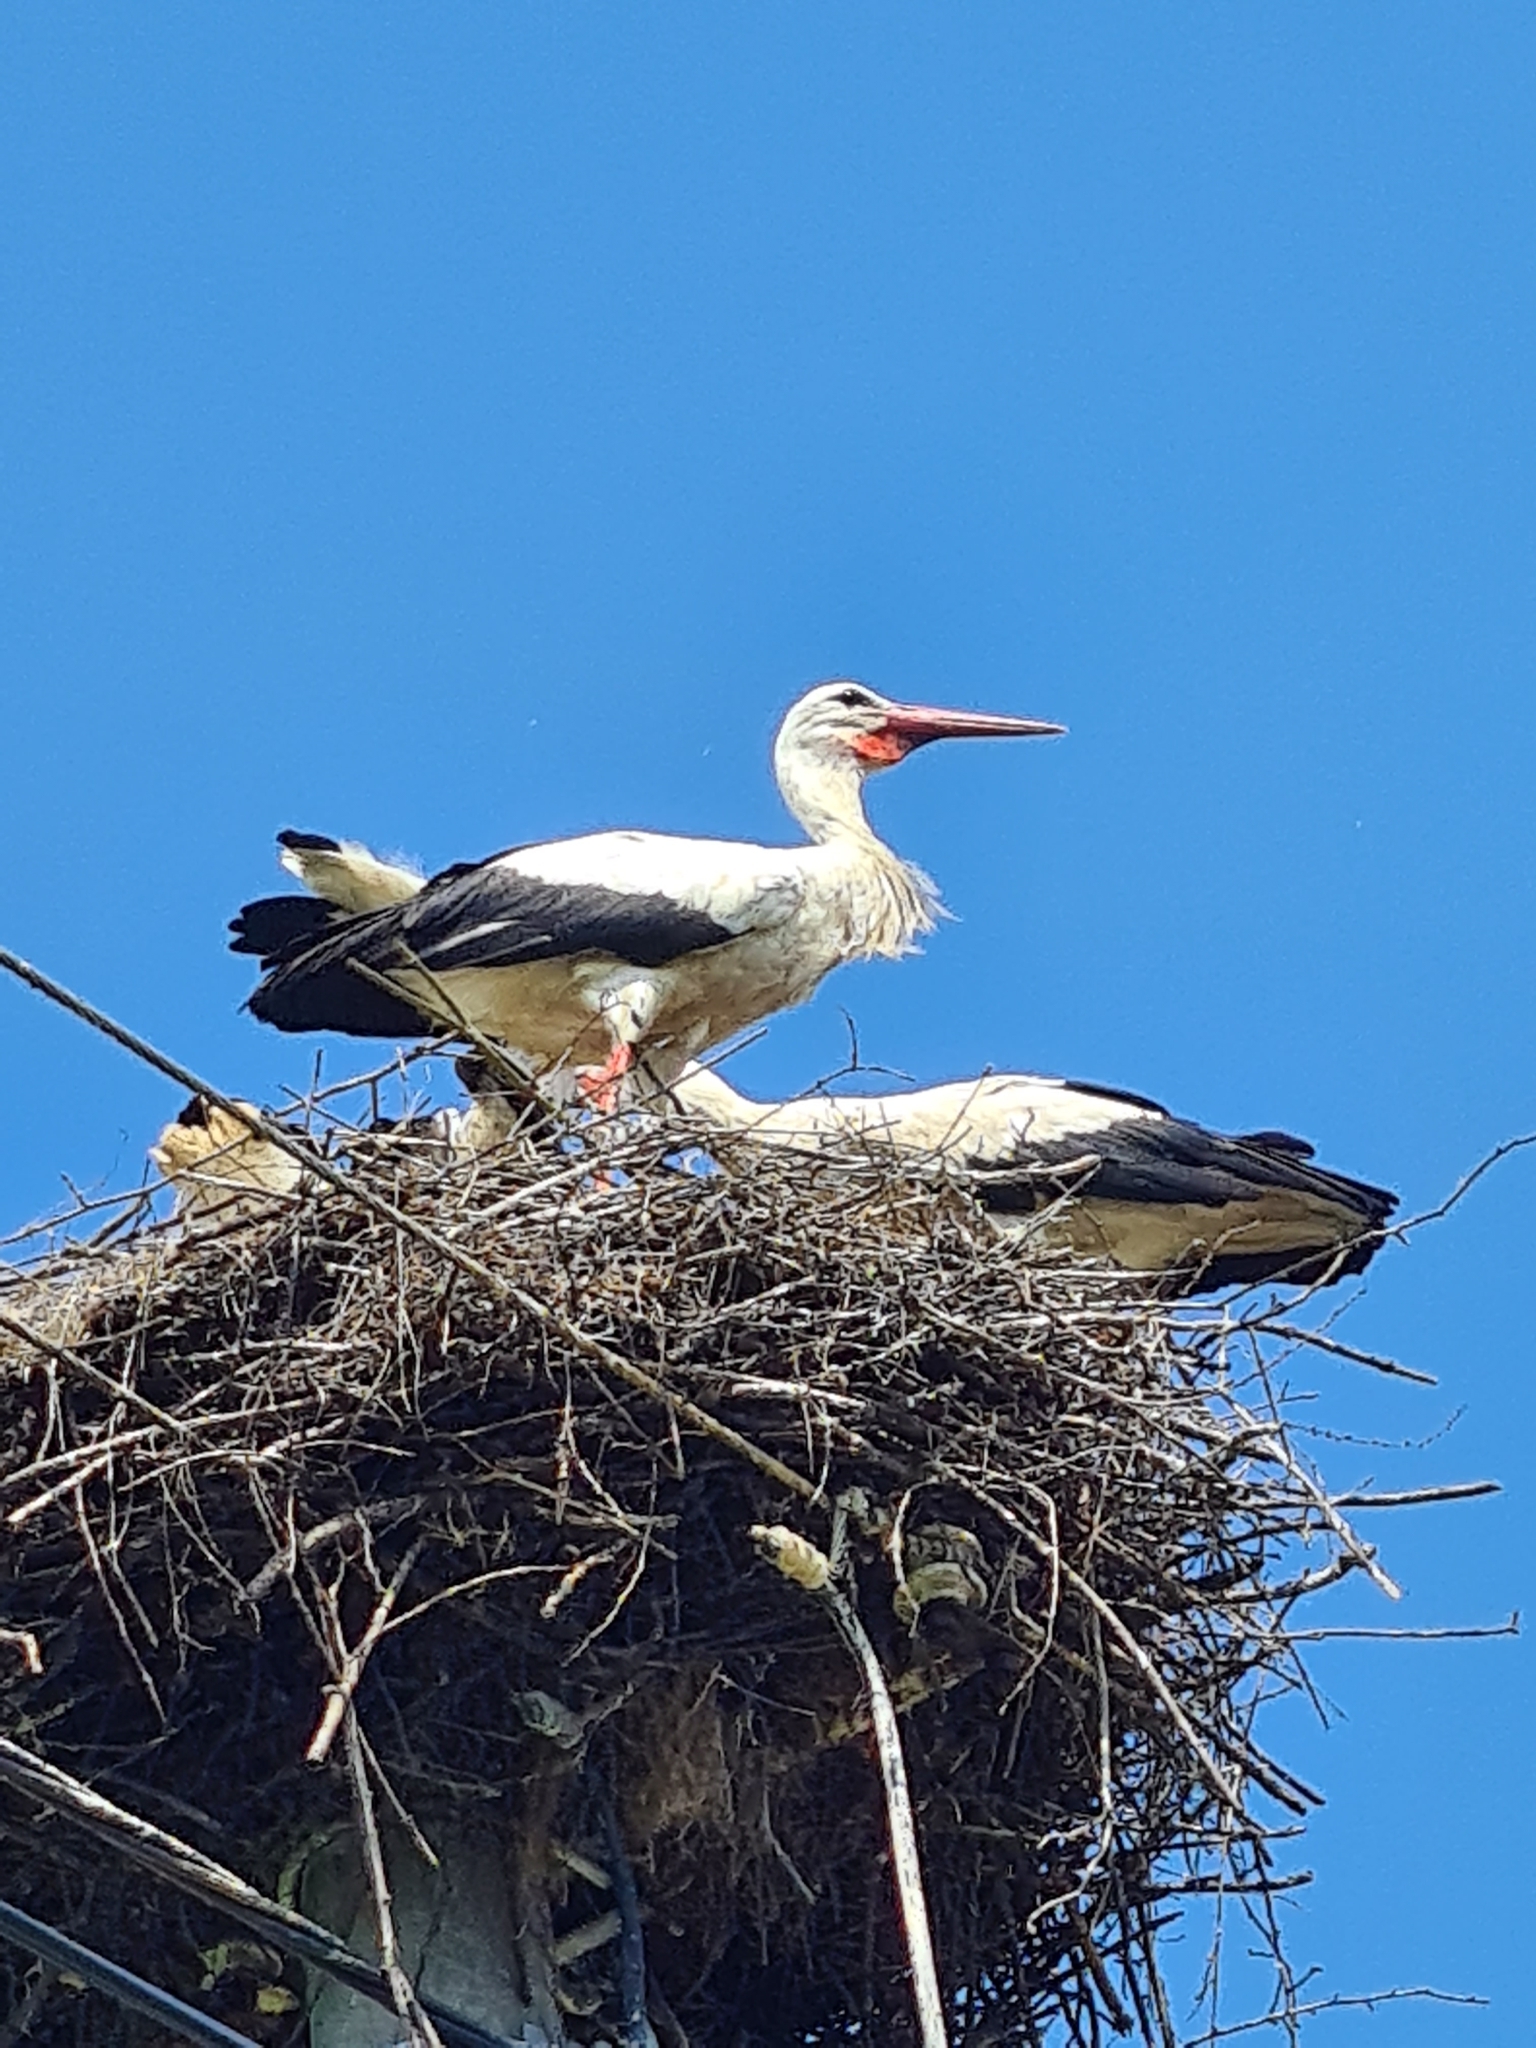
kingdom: Animalia
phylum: Chordata
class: Aves
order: Ciconiiformes
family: Ciconiidae
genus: Ciconia
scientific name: Ciconia ciconia
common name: White stork
